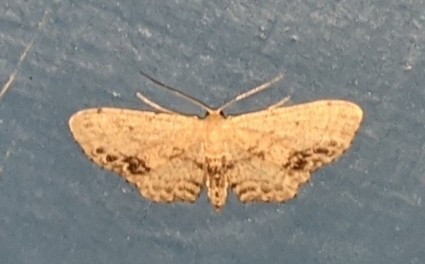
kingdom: Animalia
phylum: Arthropoda
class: Insecta
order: Lepidoptera
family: Geometridae
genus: Idaea
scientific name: Idaea dimidiata
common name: Single-dotted wave
